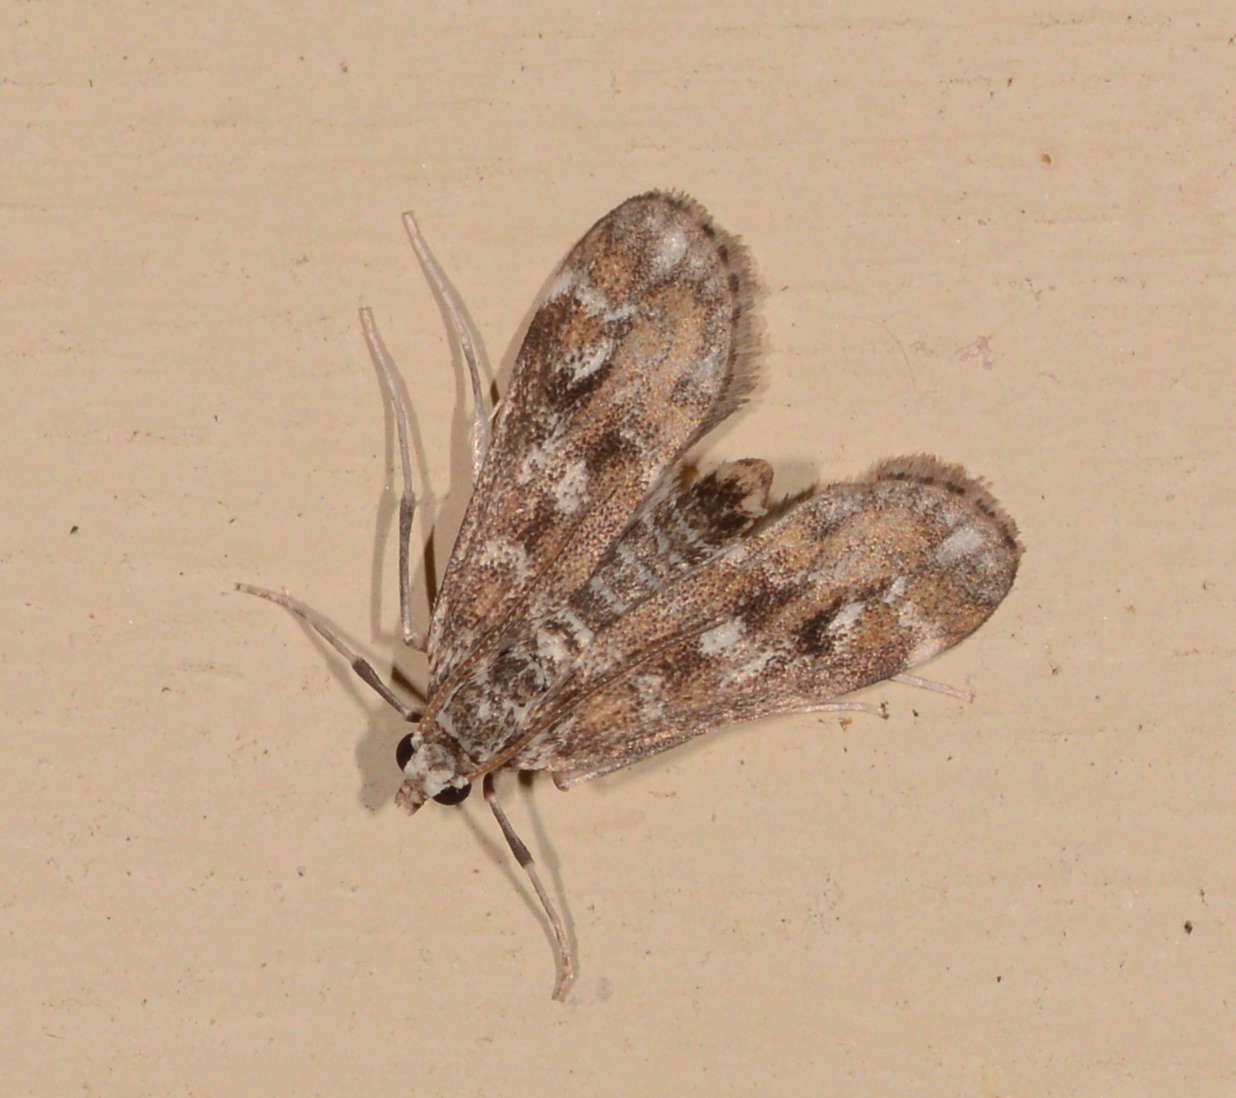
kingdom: Animalia
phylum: Arthropoda
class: Insecta
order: Lepidoptera
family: Crambidae
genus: Hygraula
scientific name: Hygraula nitens
